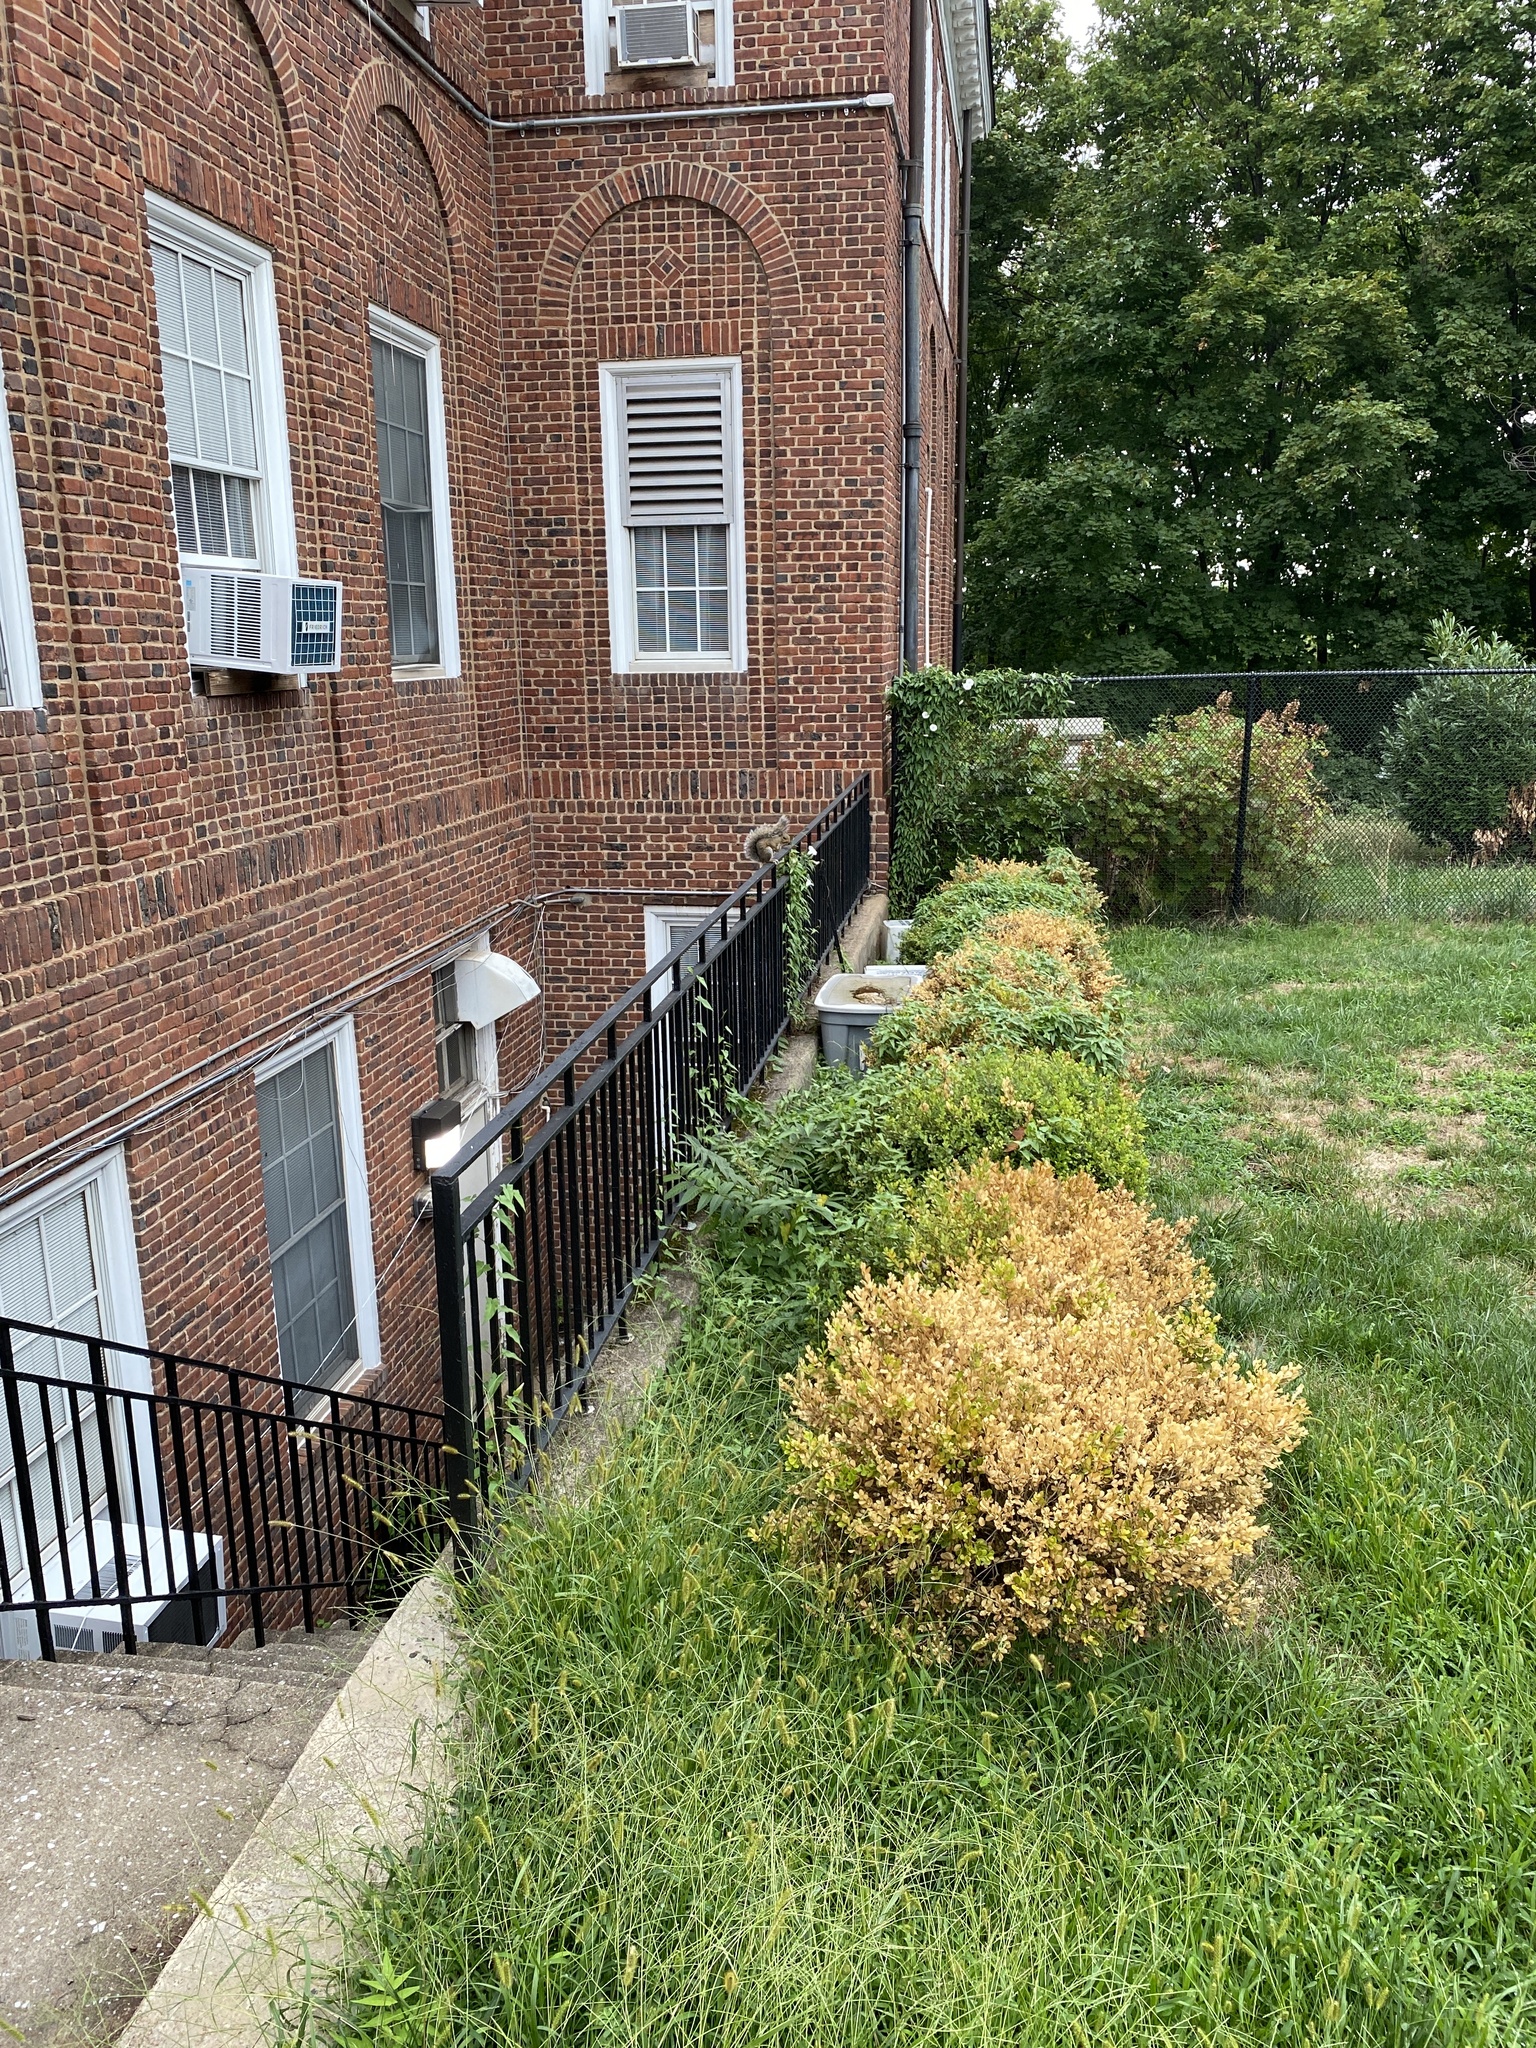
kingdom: Animalia
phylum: Chordata
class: Mammalia
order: Rodentia
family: Sciuridae
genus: Sciurus
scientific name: Sciurus carolinensis
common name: Eastern gray squirrel
